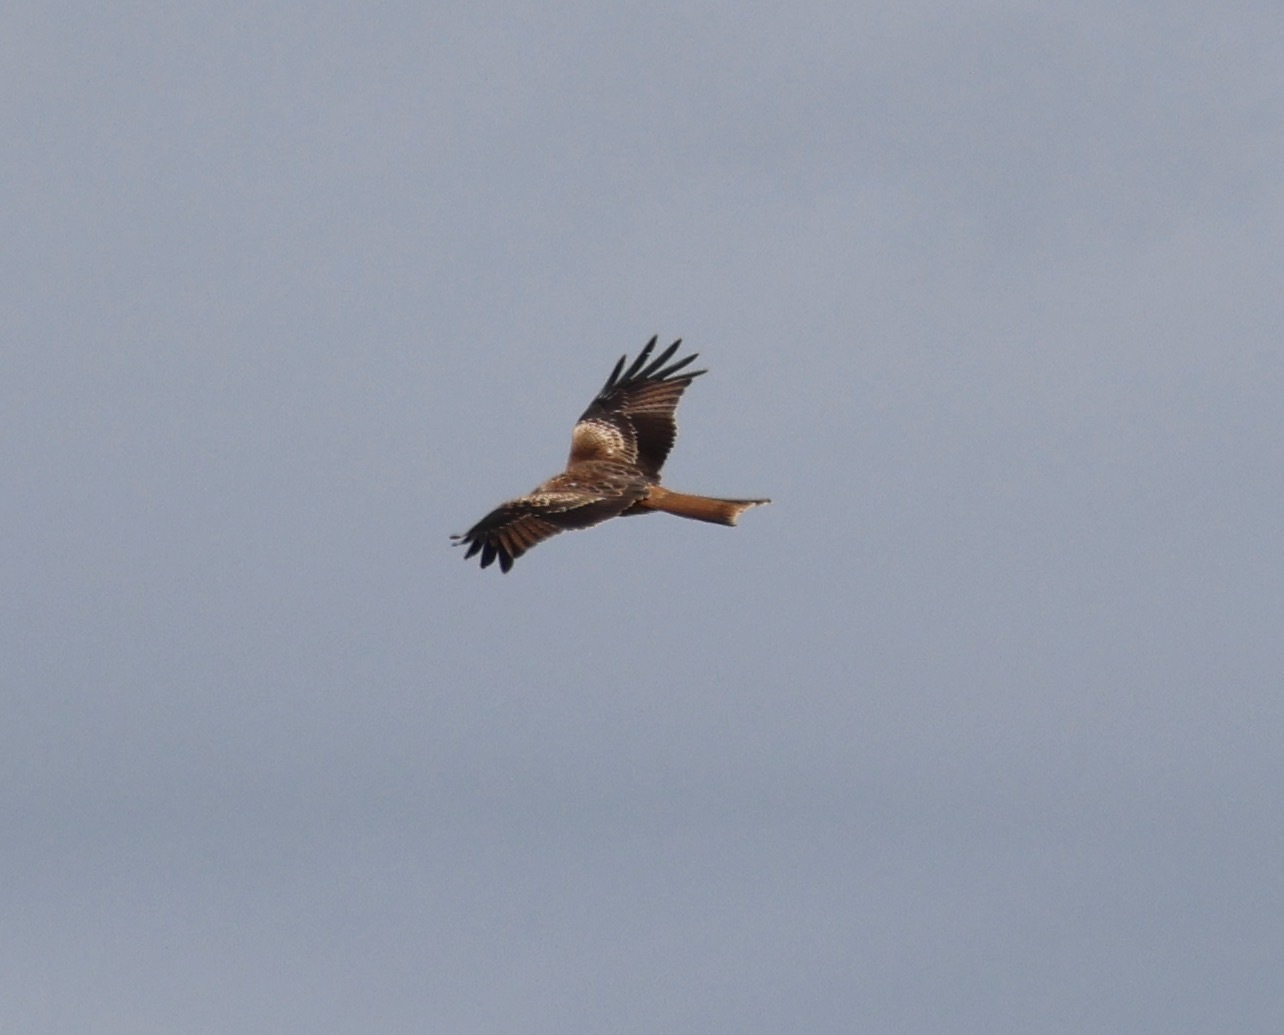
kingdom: Animalia
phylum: Chordata
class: Aves
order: Accipitriformes
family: Accipitridae
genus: Milvus
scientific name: Milvus milvus
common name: Red kite
